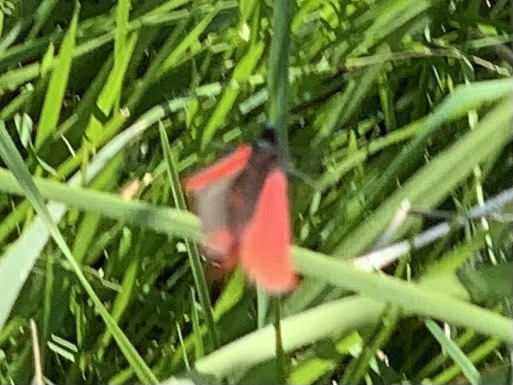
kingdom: Animalia
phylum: Arthropoda
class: Insecta
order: Lepidoptera
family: Erebidae
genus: Tyria
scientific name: Tyria jacobaeae
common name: Cinnabar
